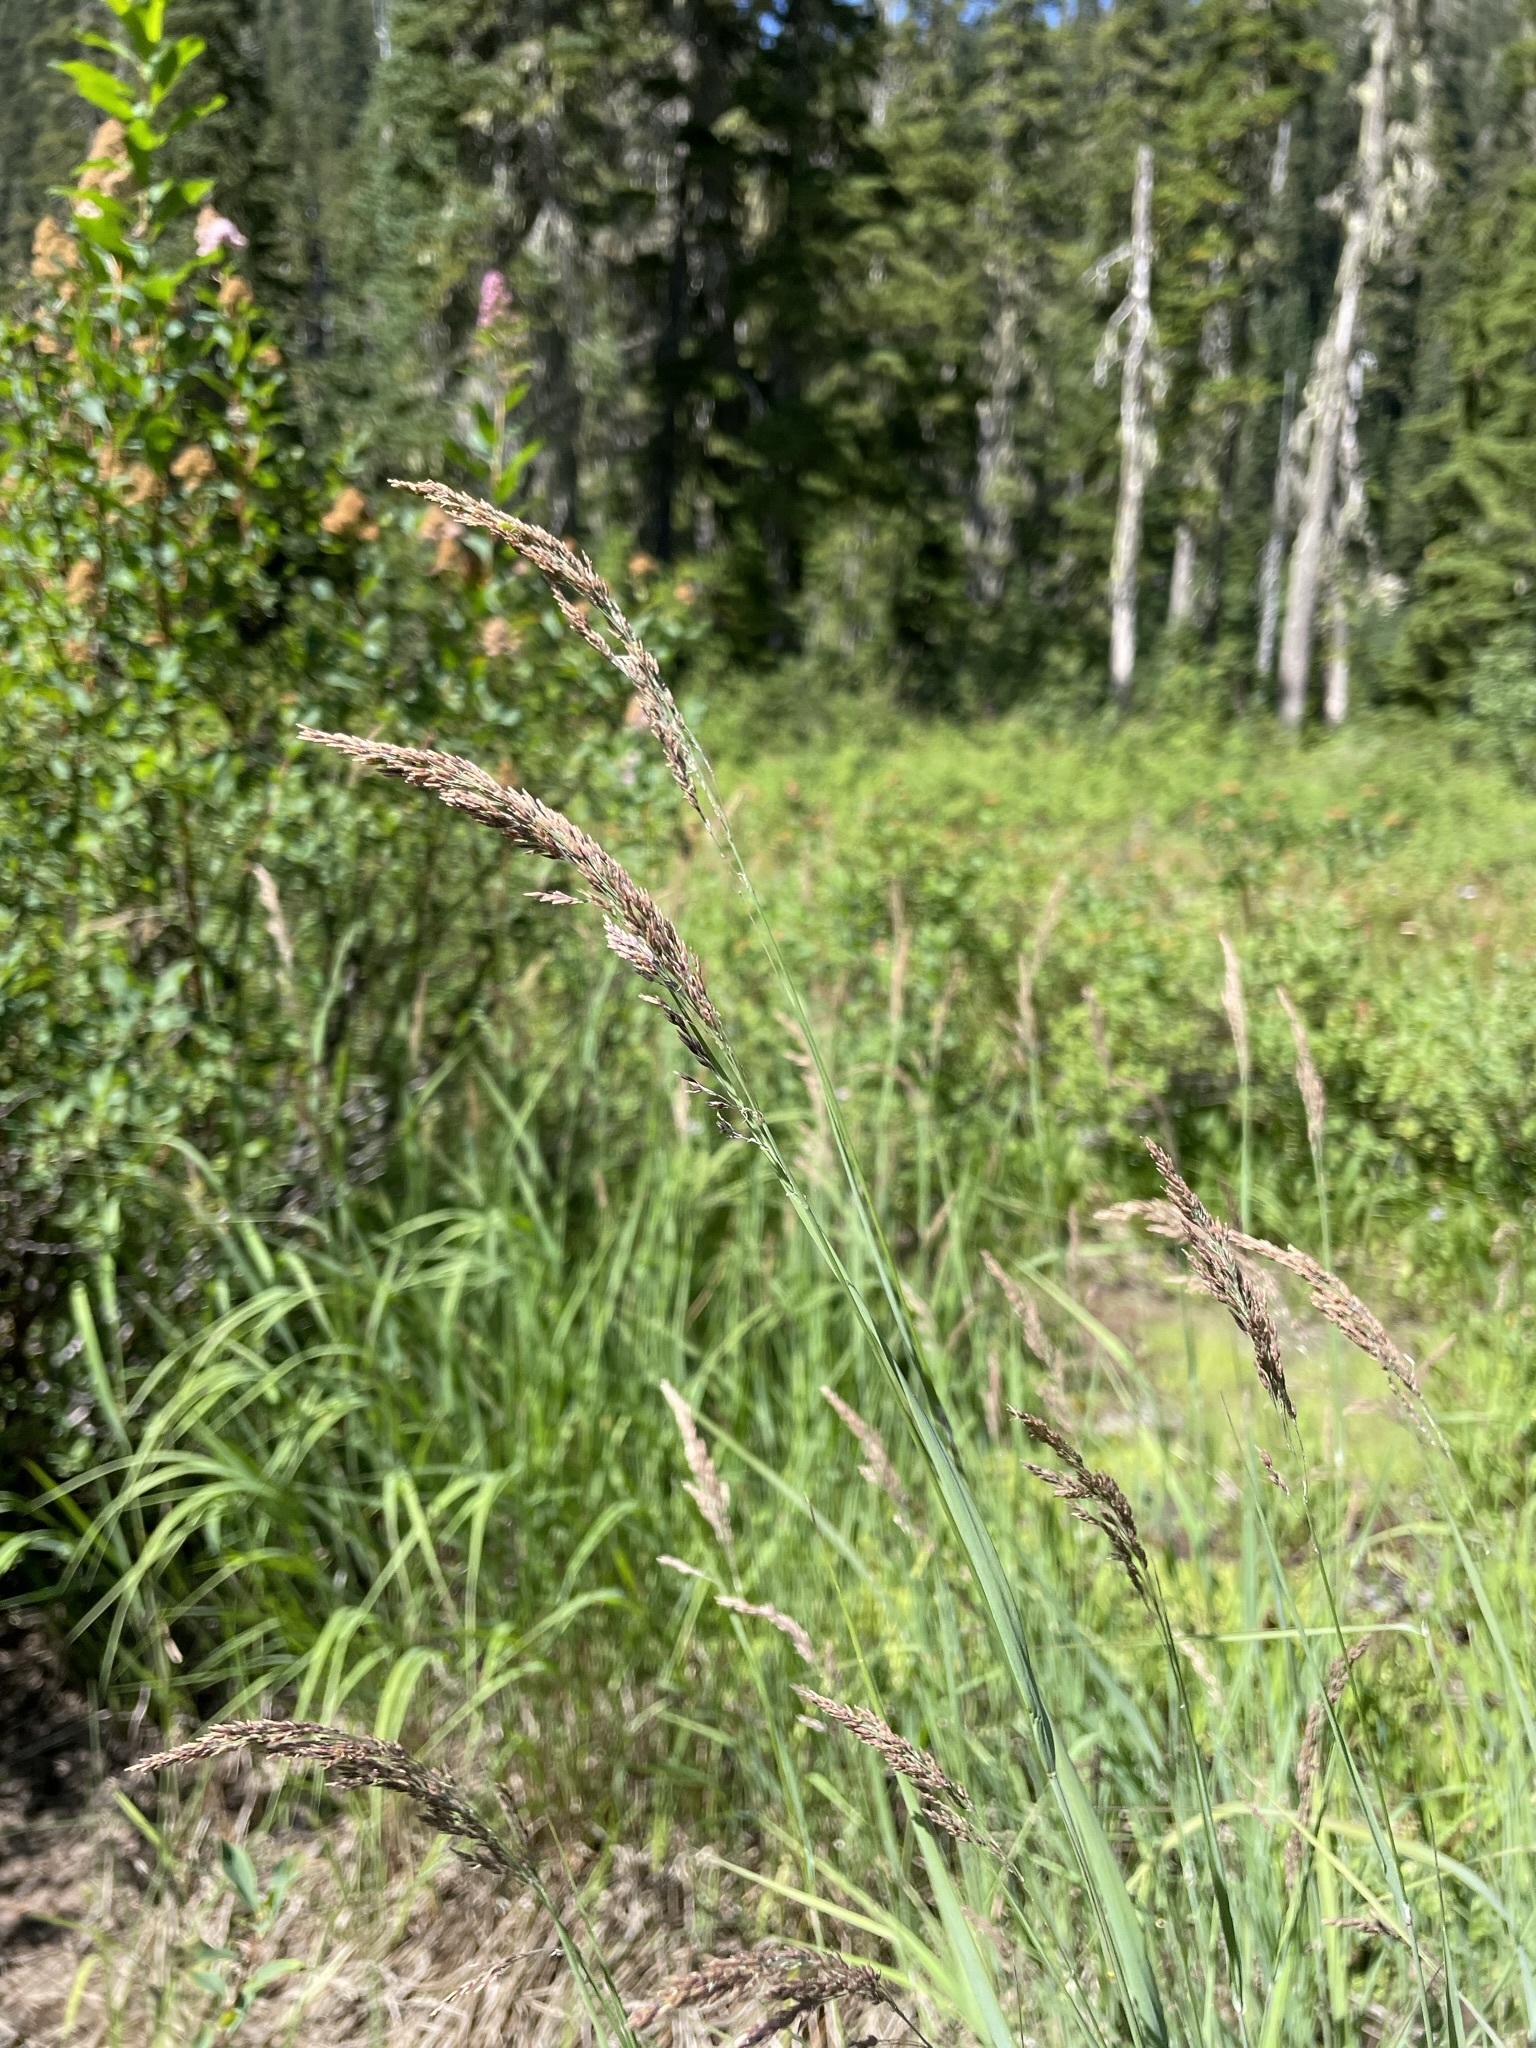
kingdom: Plantae
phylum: Tracheophyta
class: Liliopsida
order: Poales
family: Poaceae
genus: Calamagrostis
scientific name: Calamagrostis canadensis
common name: Canada bluejoint
